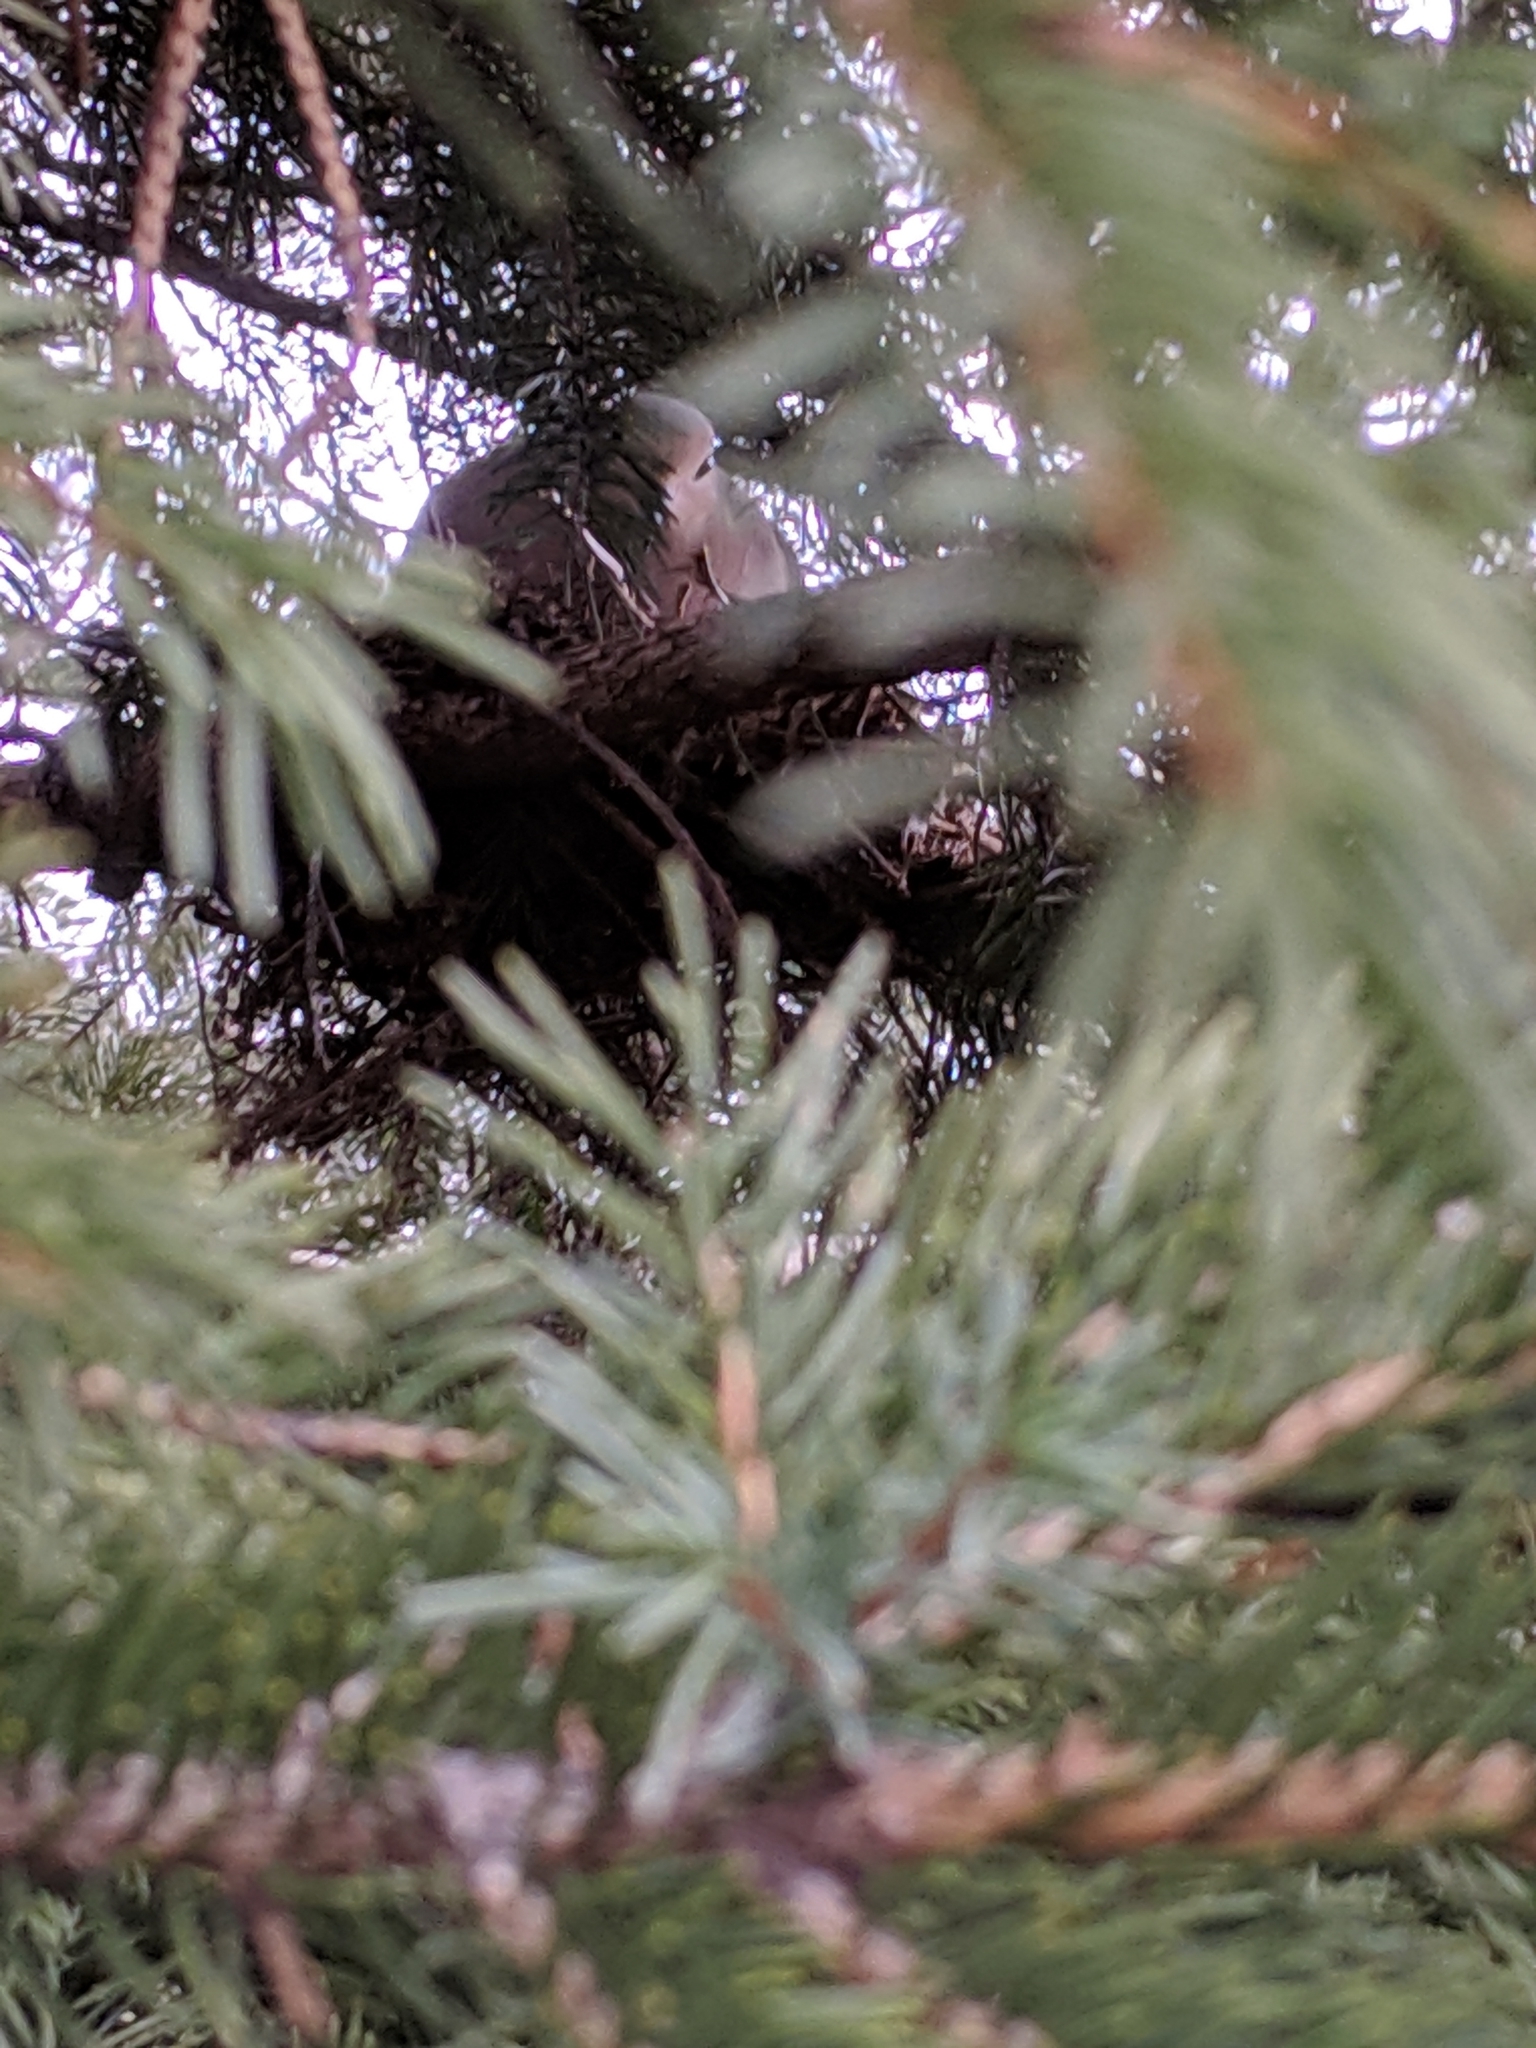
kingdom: Animalia
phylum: Chordata
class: Aves
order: Columbiformes
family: Columbidae
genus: Zenaida
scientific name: Zenaida macroura
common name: Mourning dove
